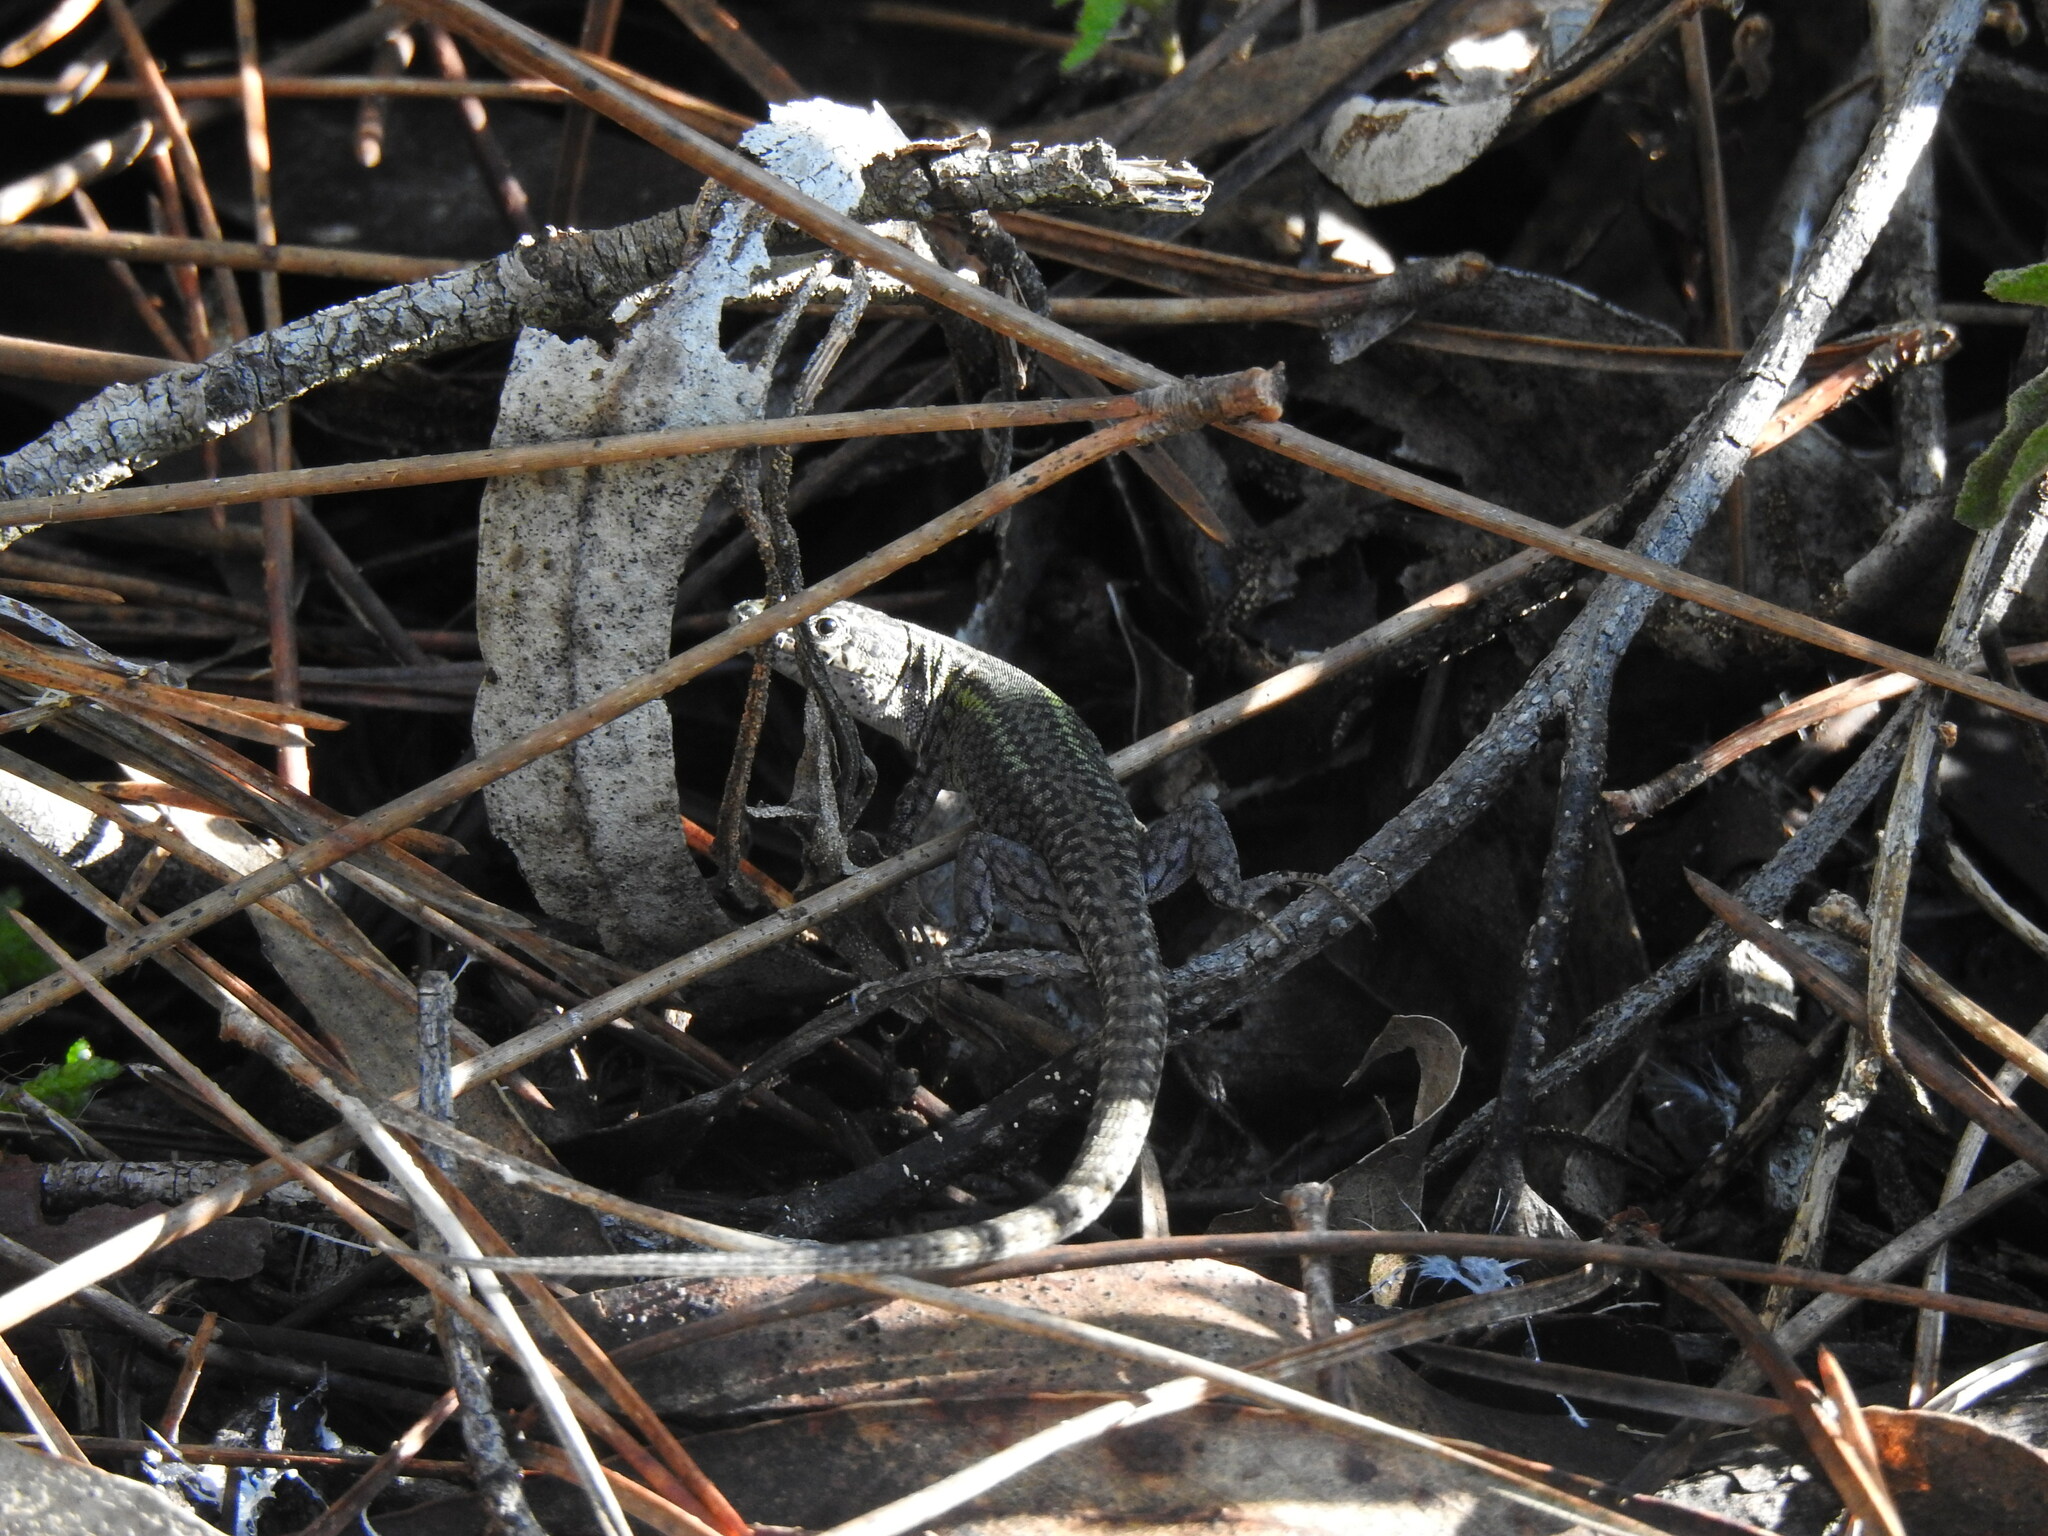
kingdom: Animalia
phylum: Chordata
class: Squamata
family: Lacertidae
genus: Podarcis
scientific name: Podarcis carbonelli
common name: Carbonelli's wall lizard
